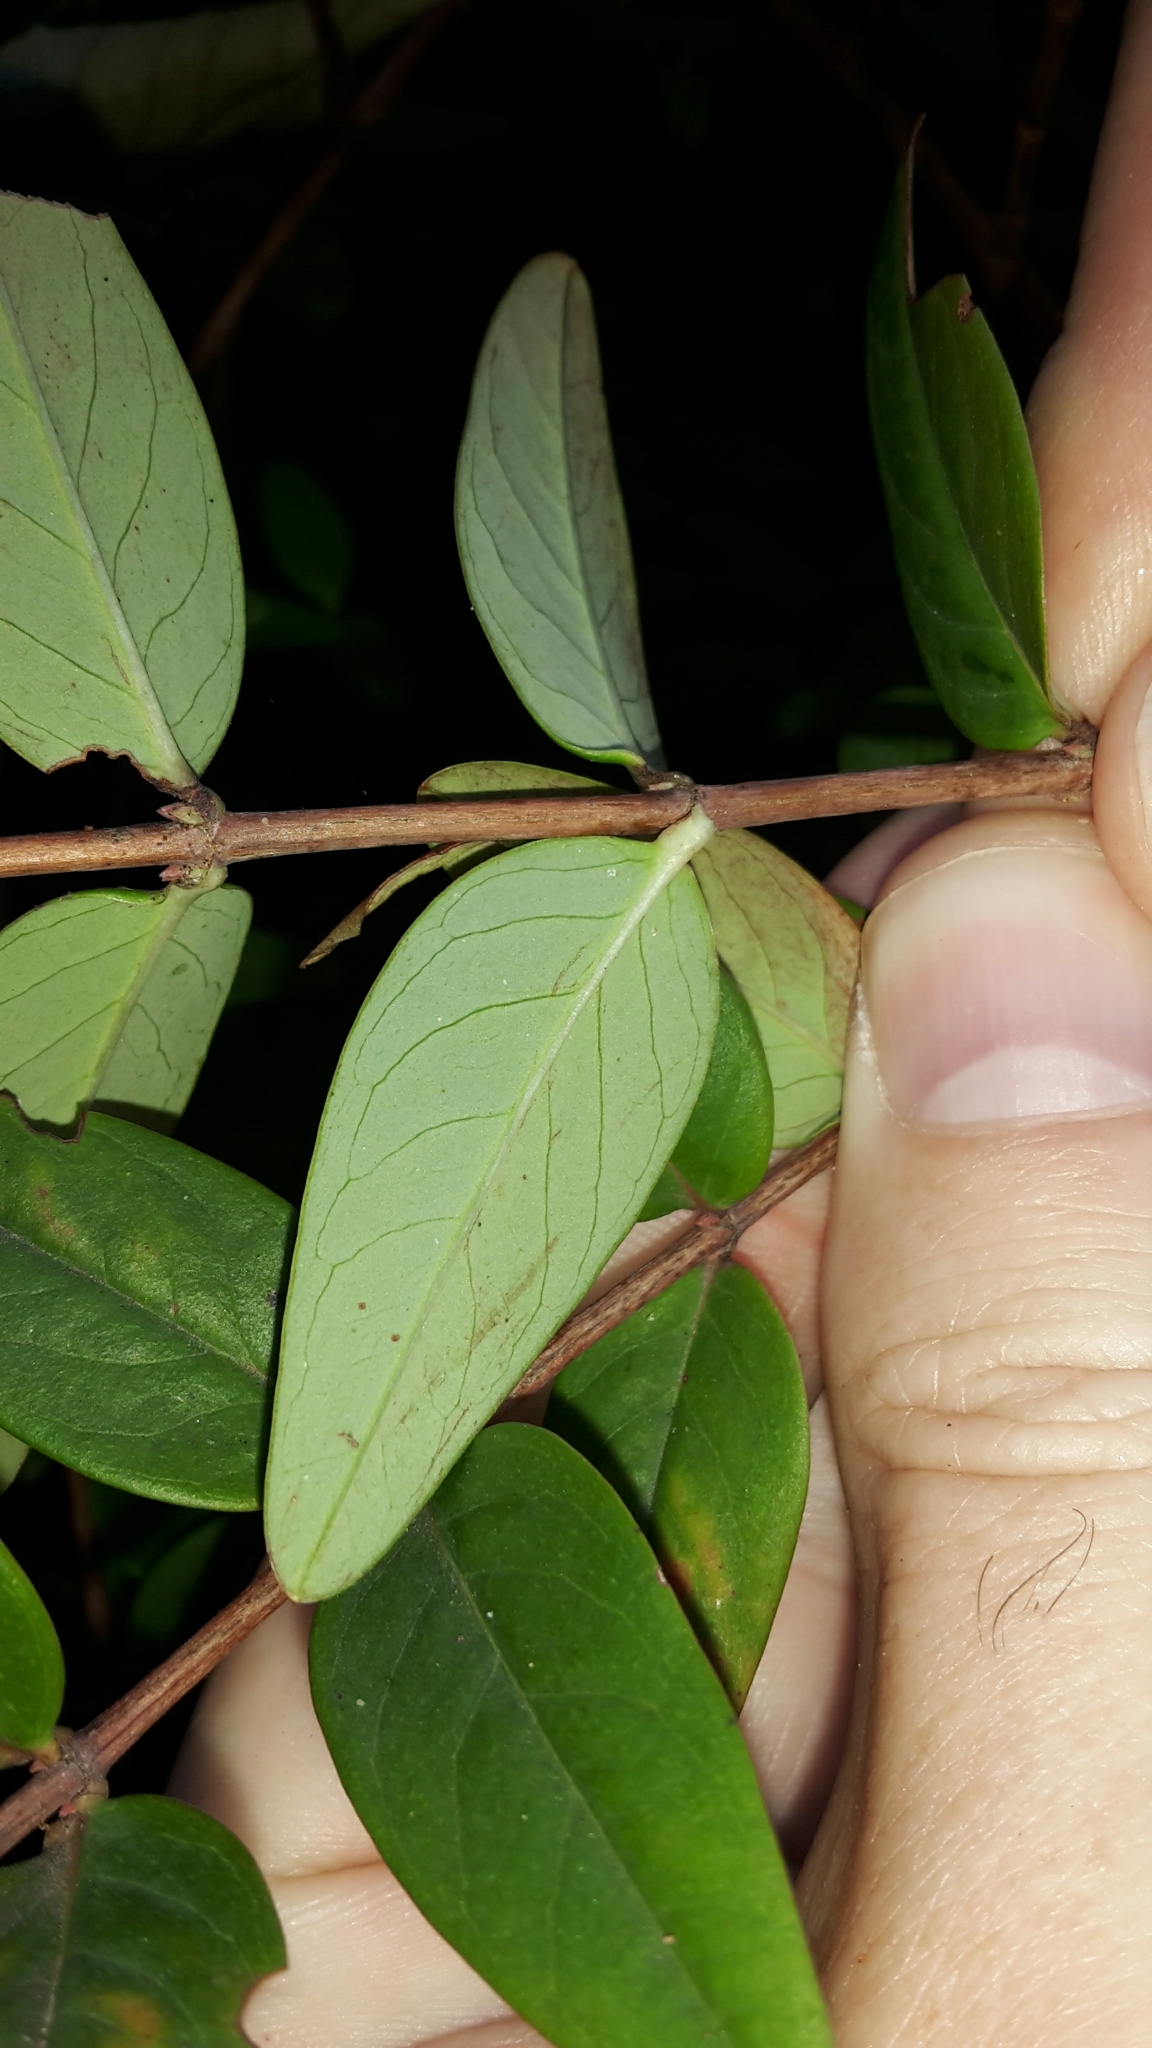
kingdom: Plantae
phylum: Tracheophyta
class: Magnoliopsida
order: Malpighiales
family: Hypericaceae
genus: Hypericum
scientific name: Hypericum henryi
